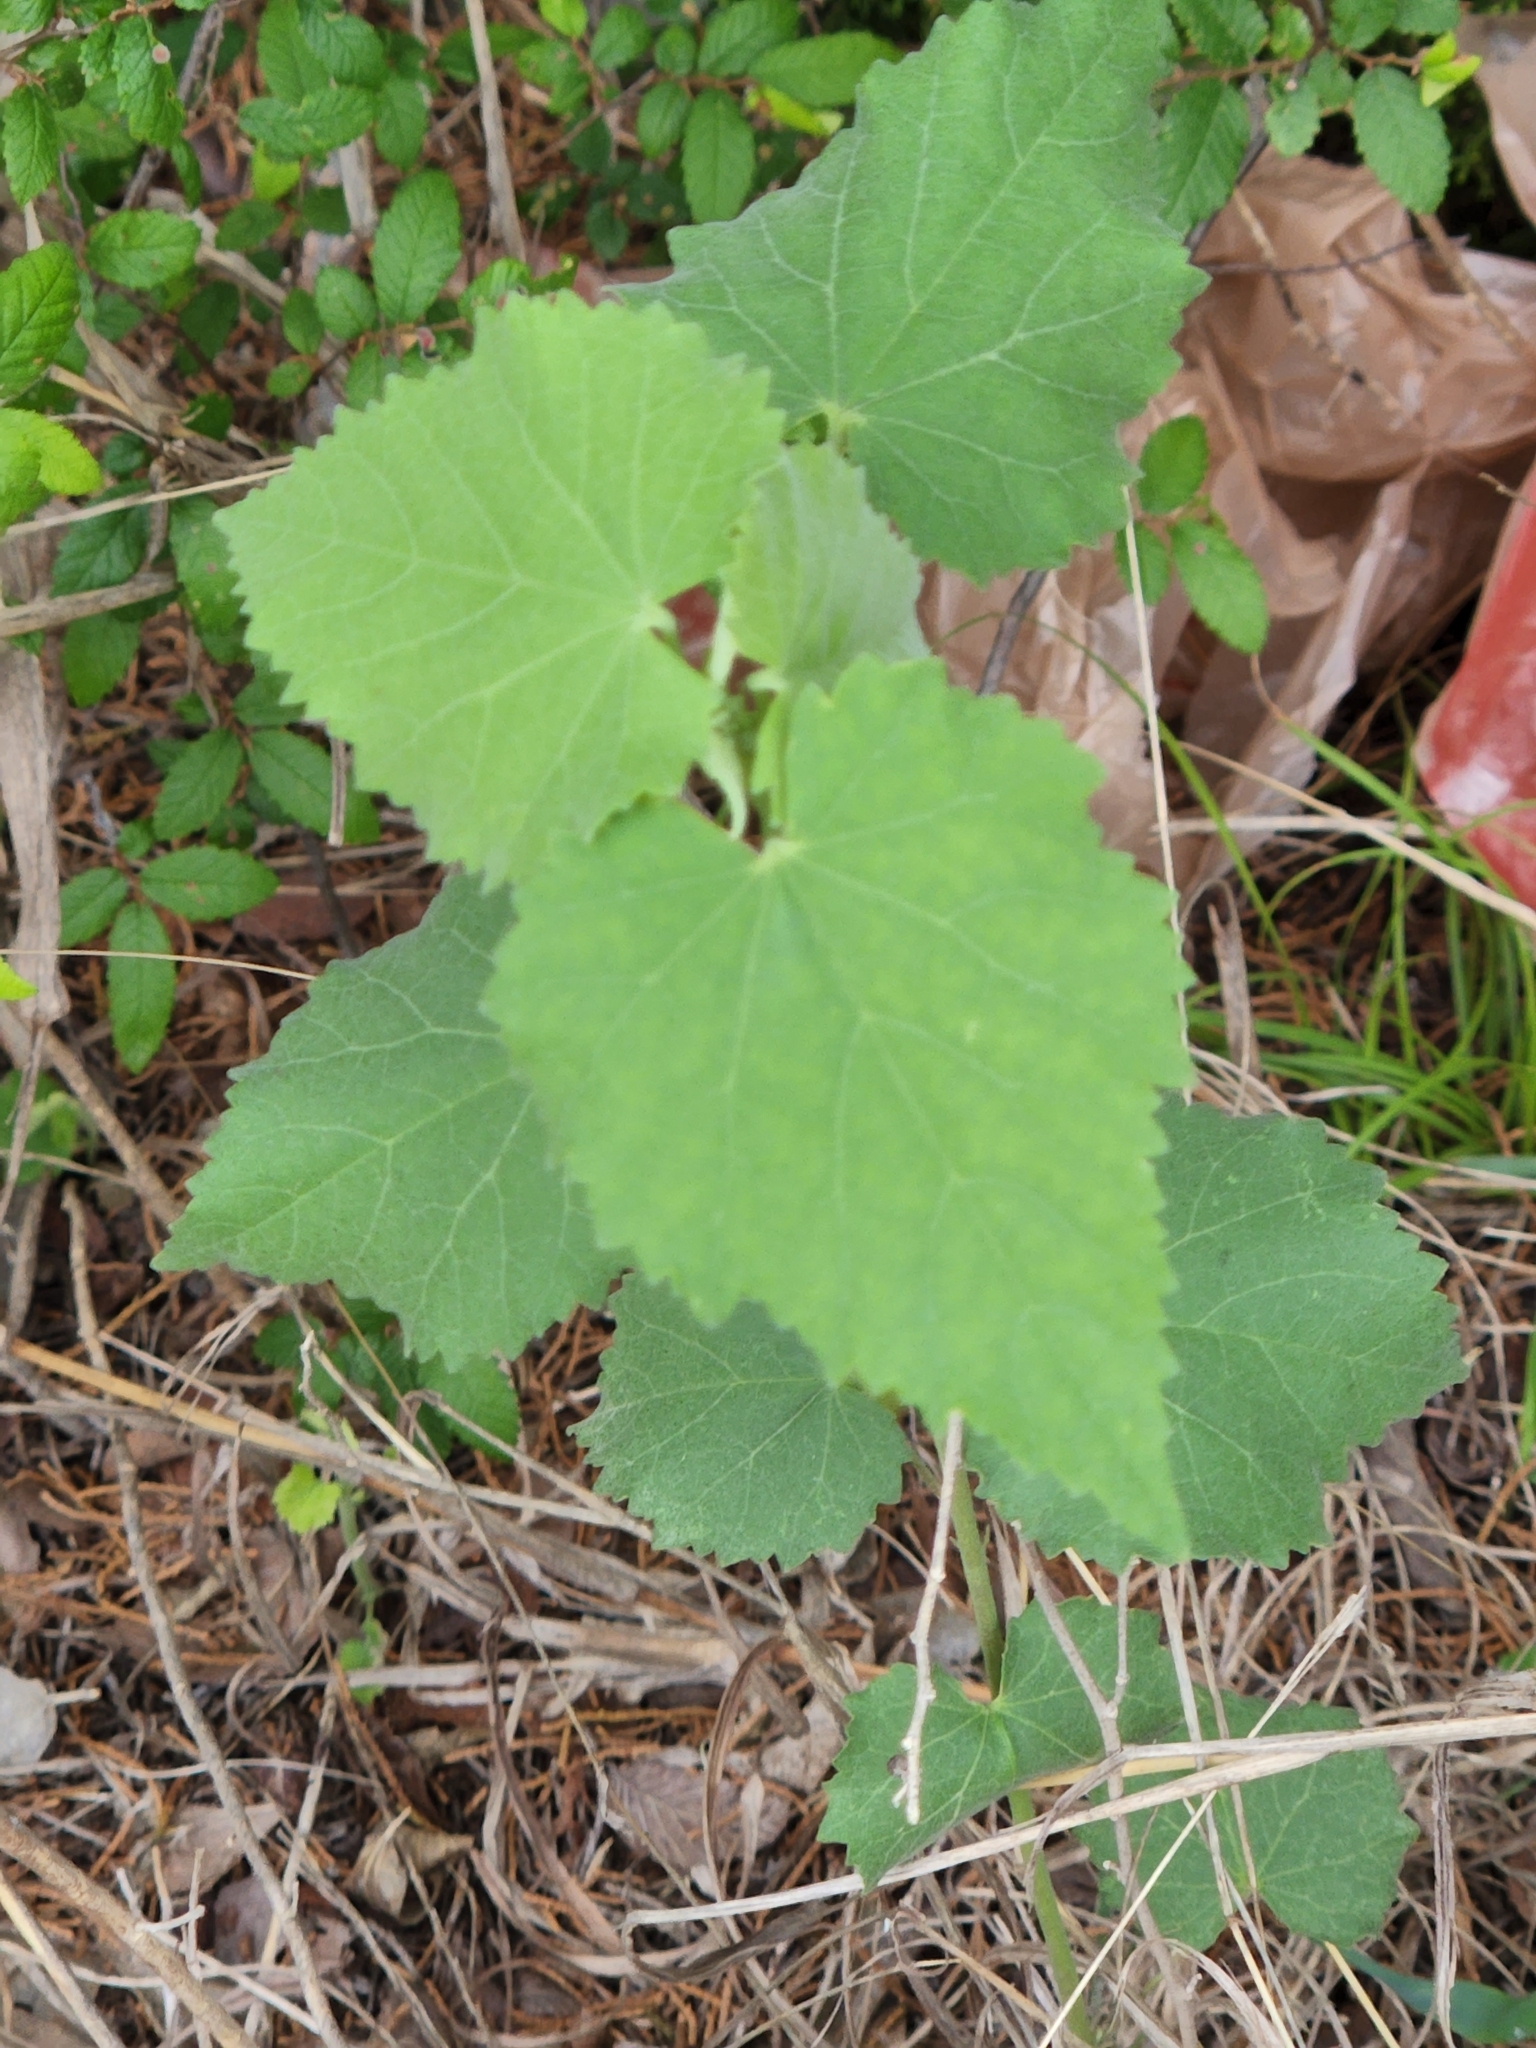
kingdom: Plantae
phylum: Tracheophyta
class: Magnoliopsida
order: Malvales
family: Malvaceae
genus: Abutilon
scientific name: Abutilon fruticosum
